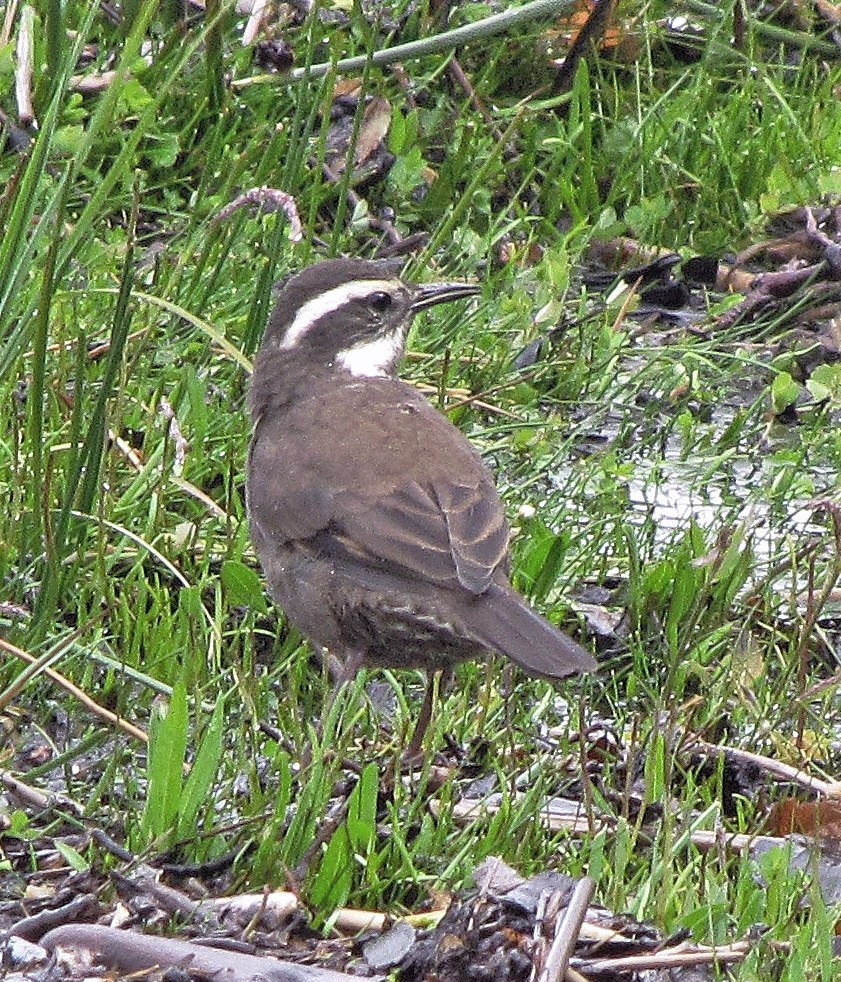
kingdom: Animalia
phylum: Chordata
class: Aves
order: Passeriformes
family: Furnariidae
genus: Cinclodes
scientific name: Cinclodes patagonicus
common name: Dark-bellied cinclodes
